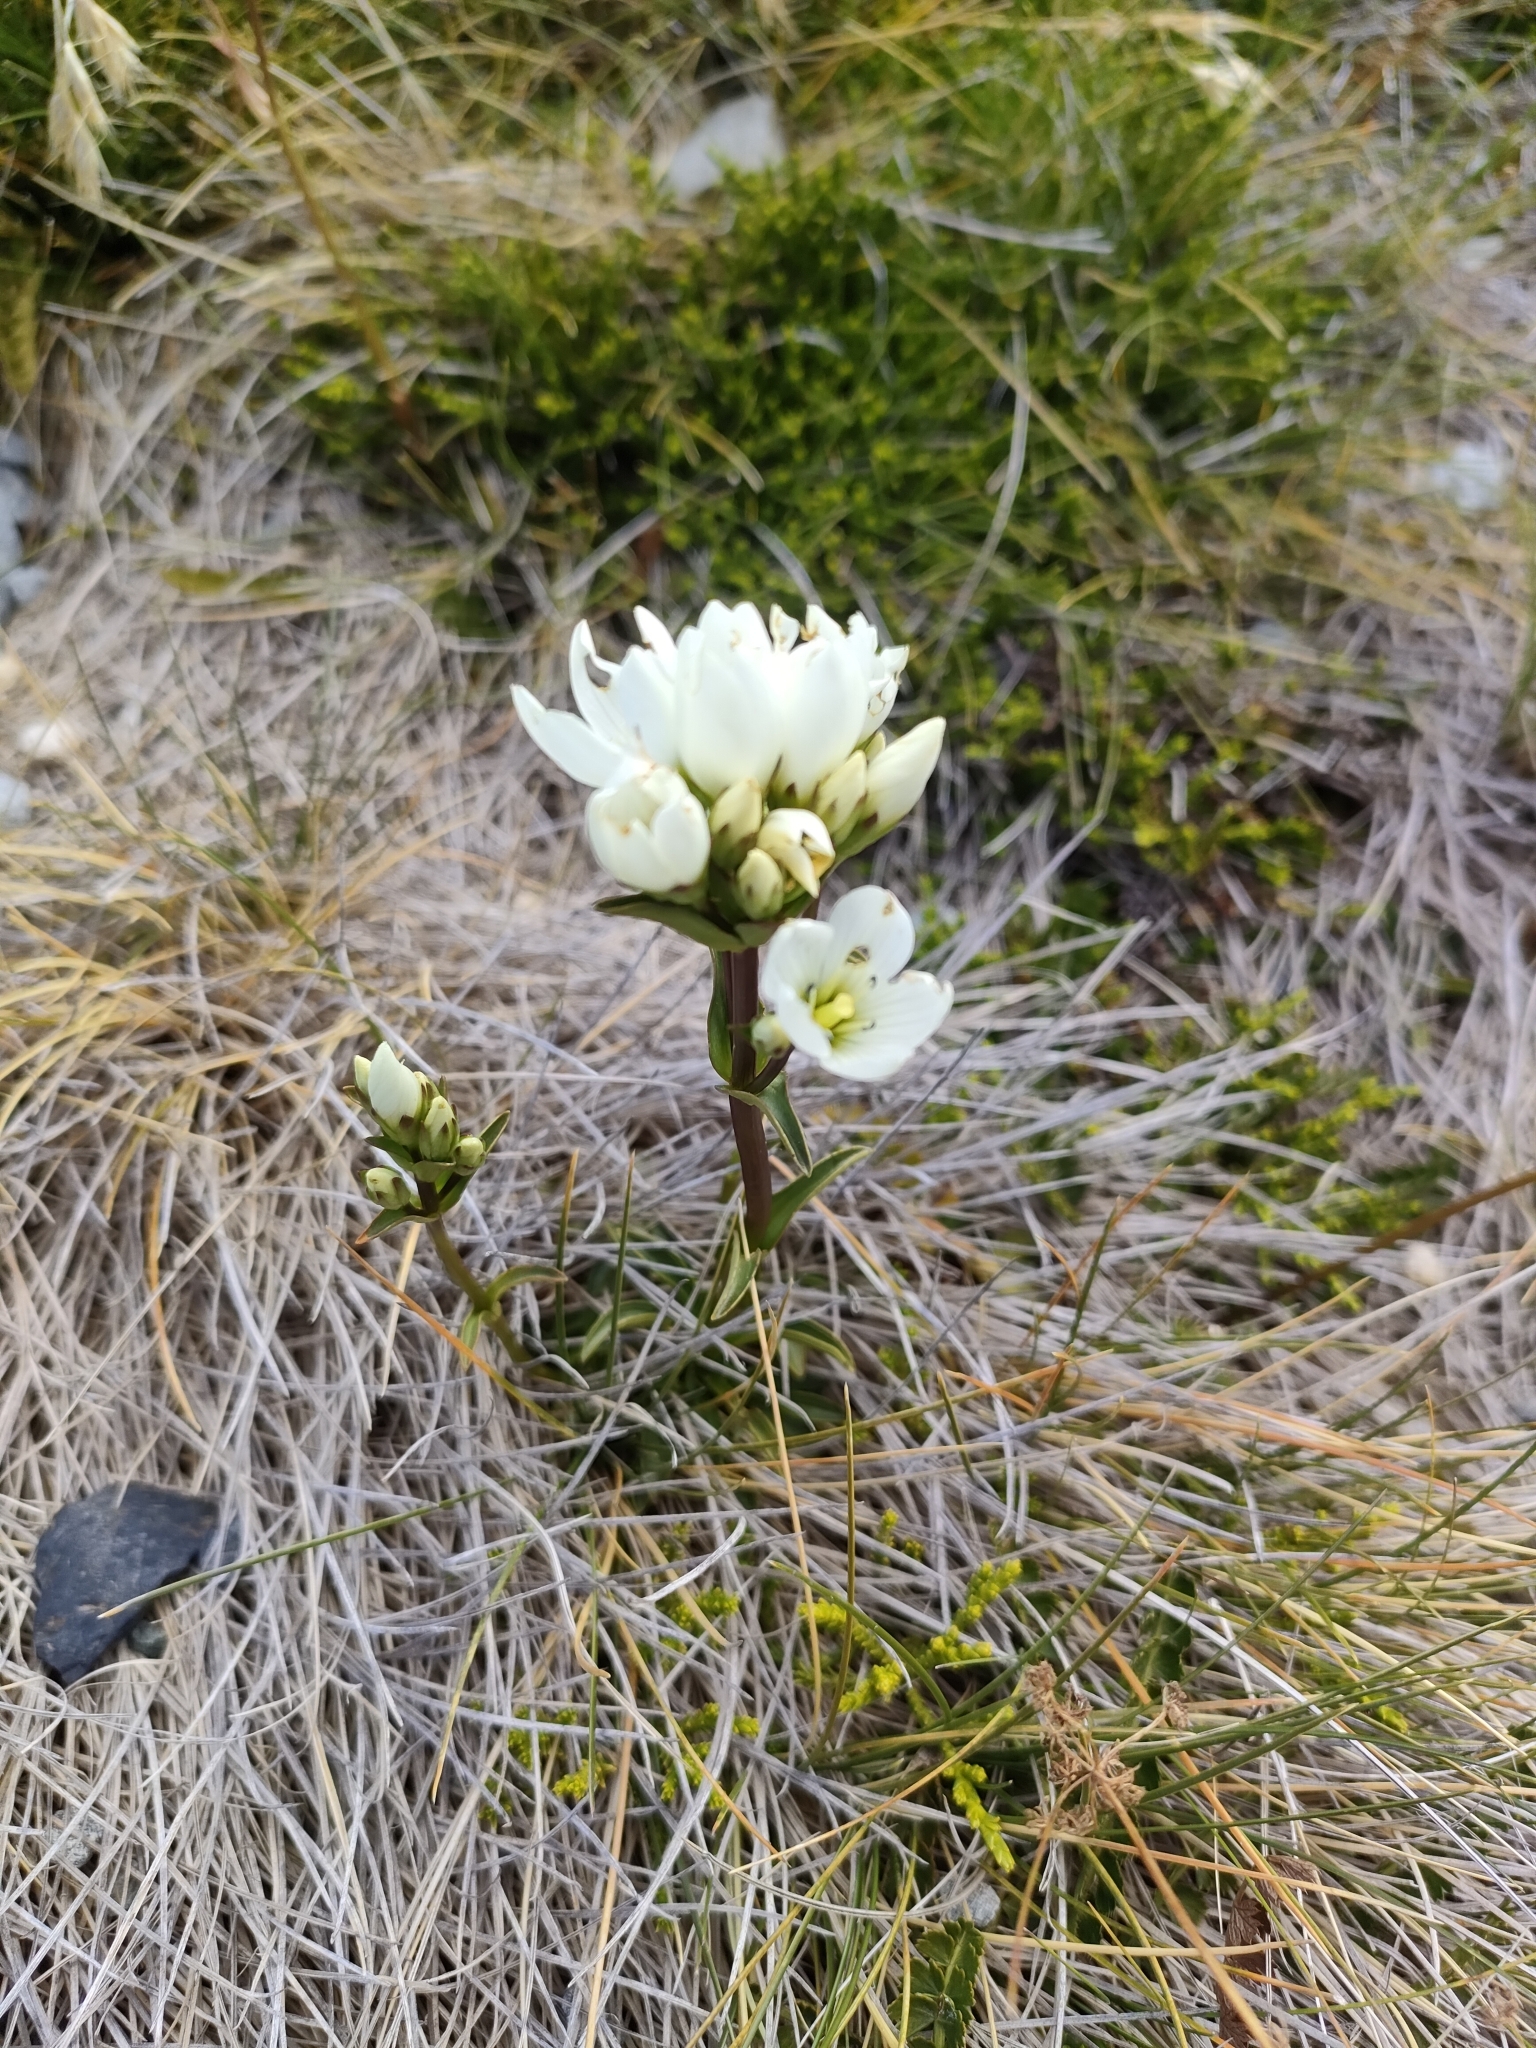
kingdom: Plantae
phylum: Tracheophyta
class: Magnoliopsida
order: Gentianales
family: Gentianaceae
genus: Gentianella
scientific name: Gentianella corymbifera
